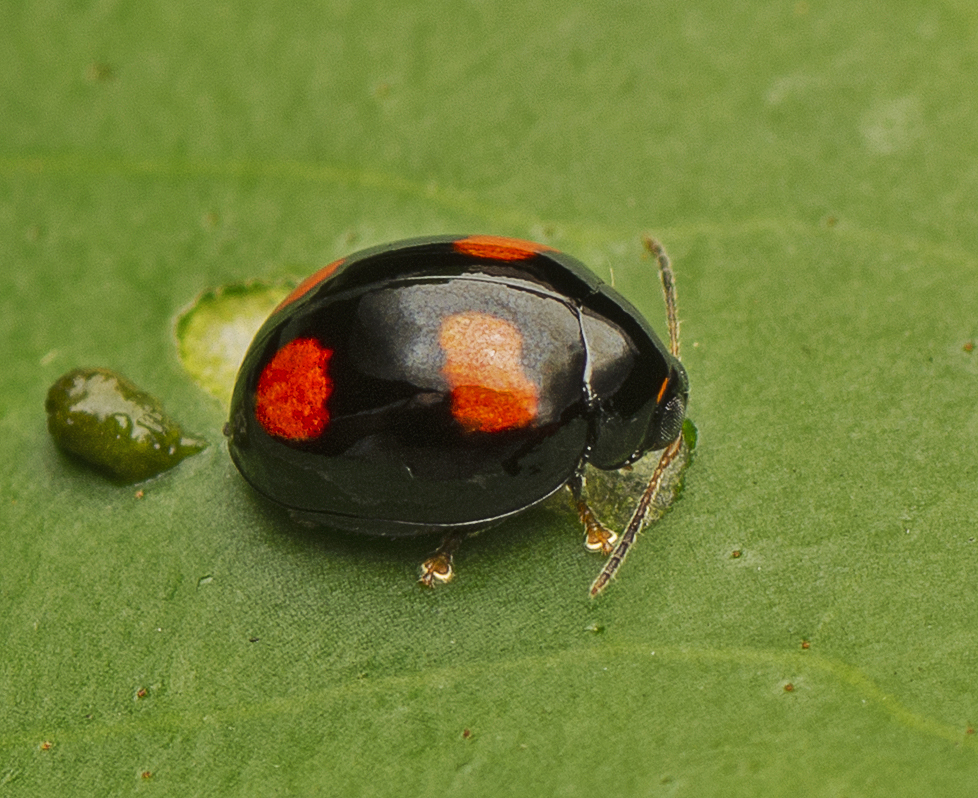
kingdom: Animalia
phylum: Arthropoda
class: Insecta
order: Coleoptera
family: Chrysomelidae
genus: Halticorcus
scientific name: Halticorcus
